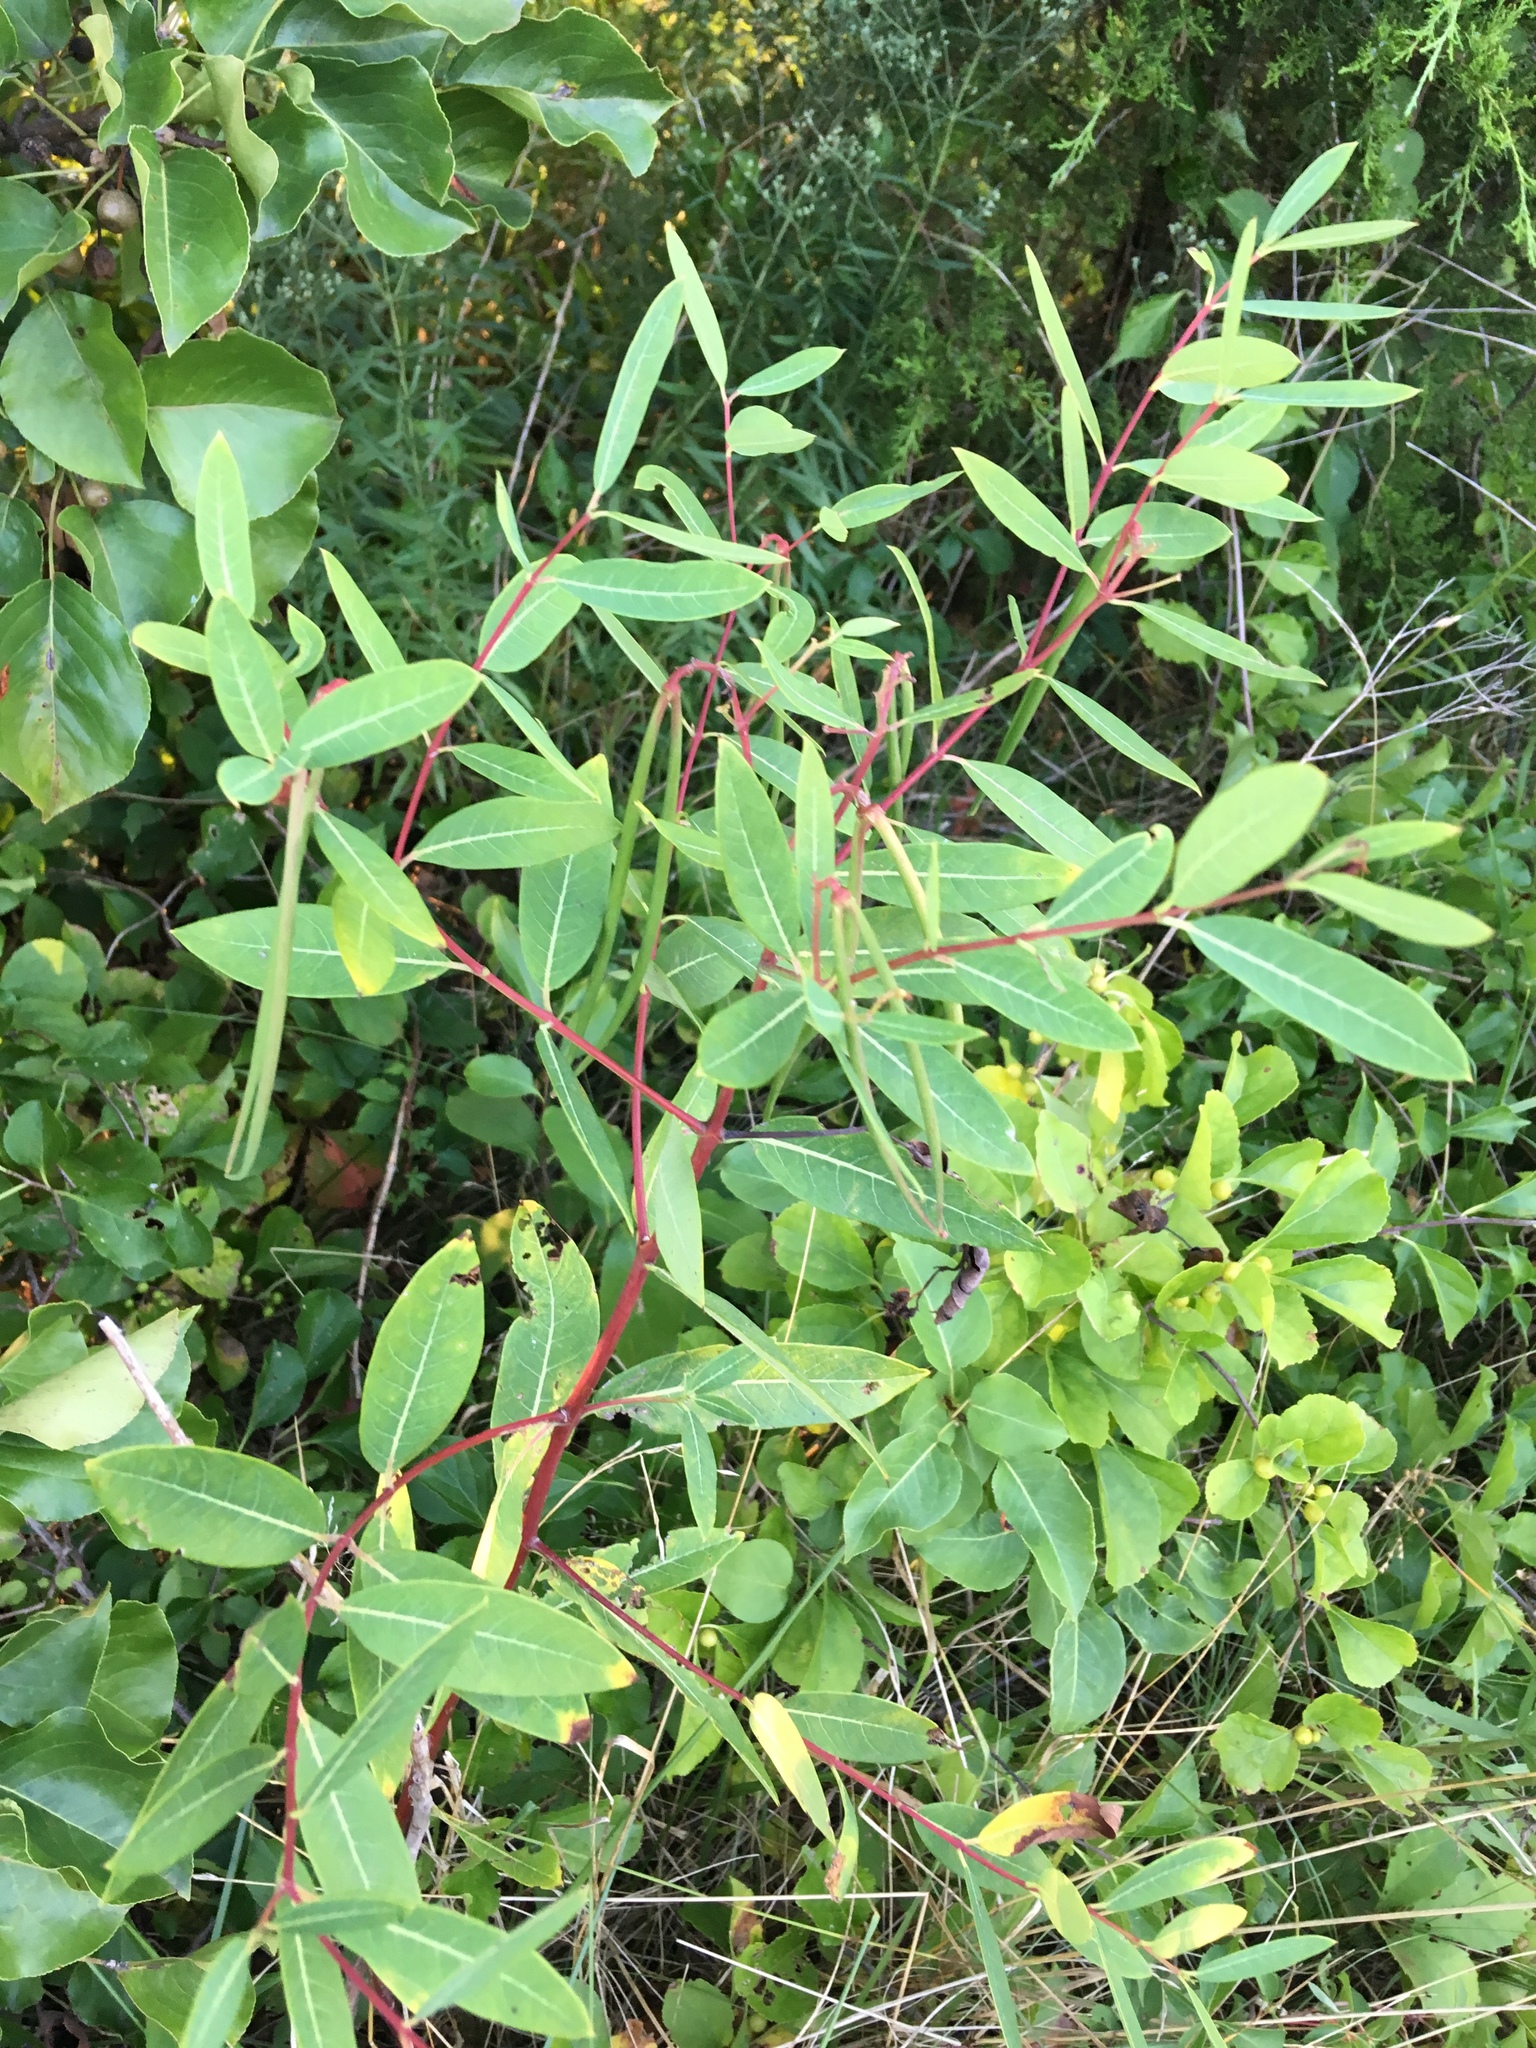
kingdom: Plantae
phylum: Tracheophyta
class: Magnoliopsida
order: Gentianales
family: Apocynaceae
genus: Apocynum
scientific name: Apocynum cannabinum
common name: Hemp dogbane
